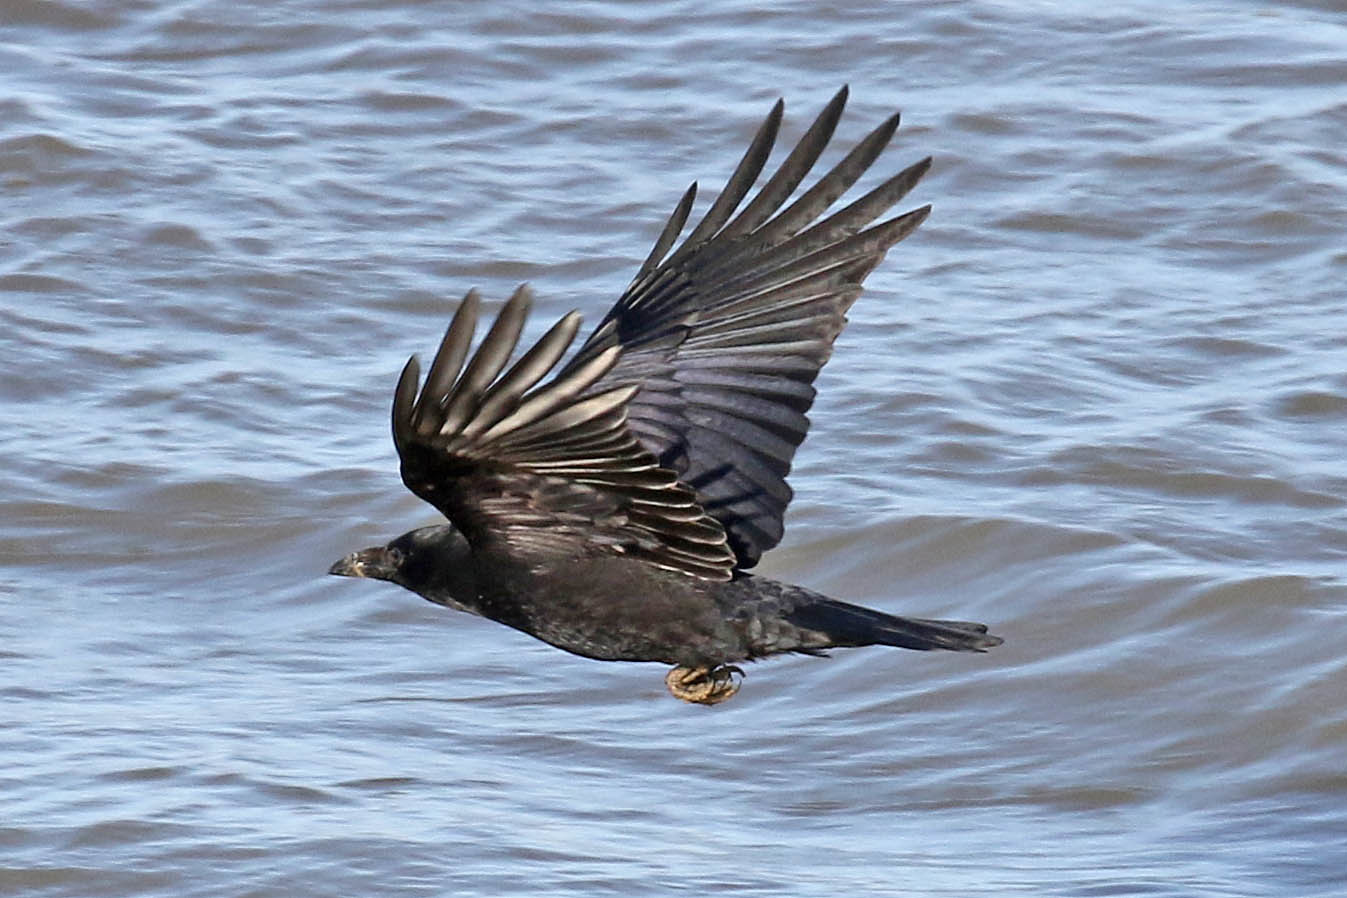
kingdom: Animalia
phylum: Chordata
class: Aves
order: Passeriformes
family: Corvidae
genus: Corvus
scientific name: Corvus corax
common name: Common raven
